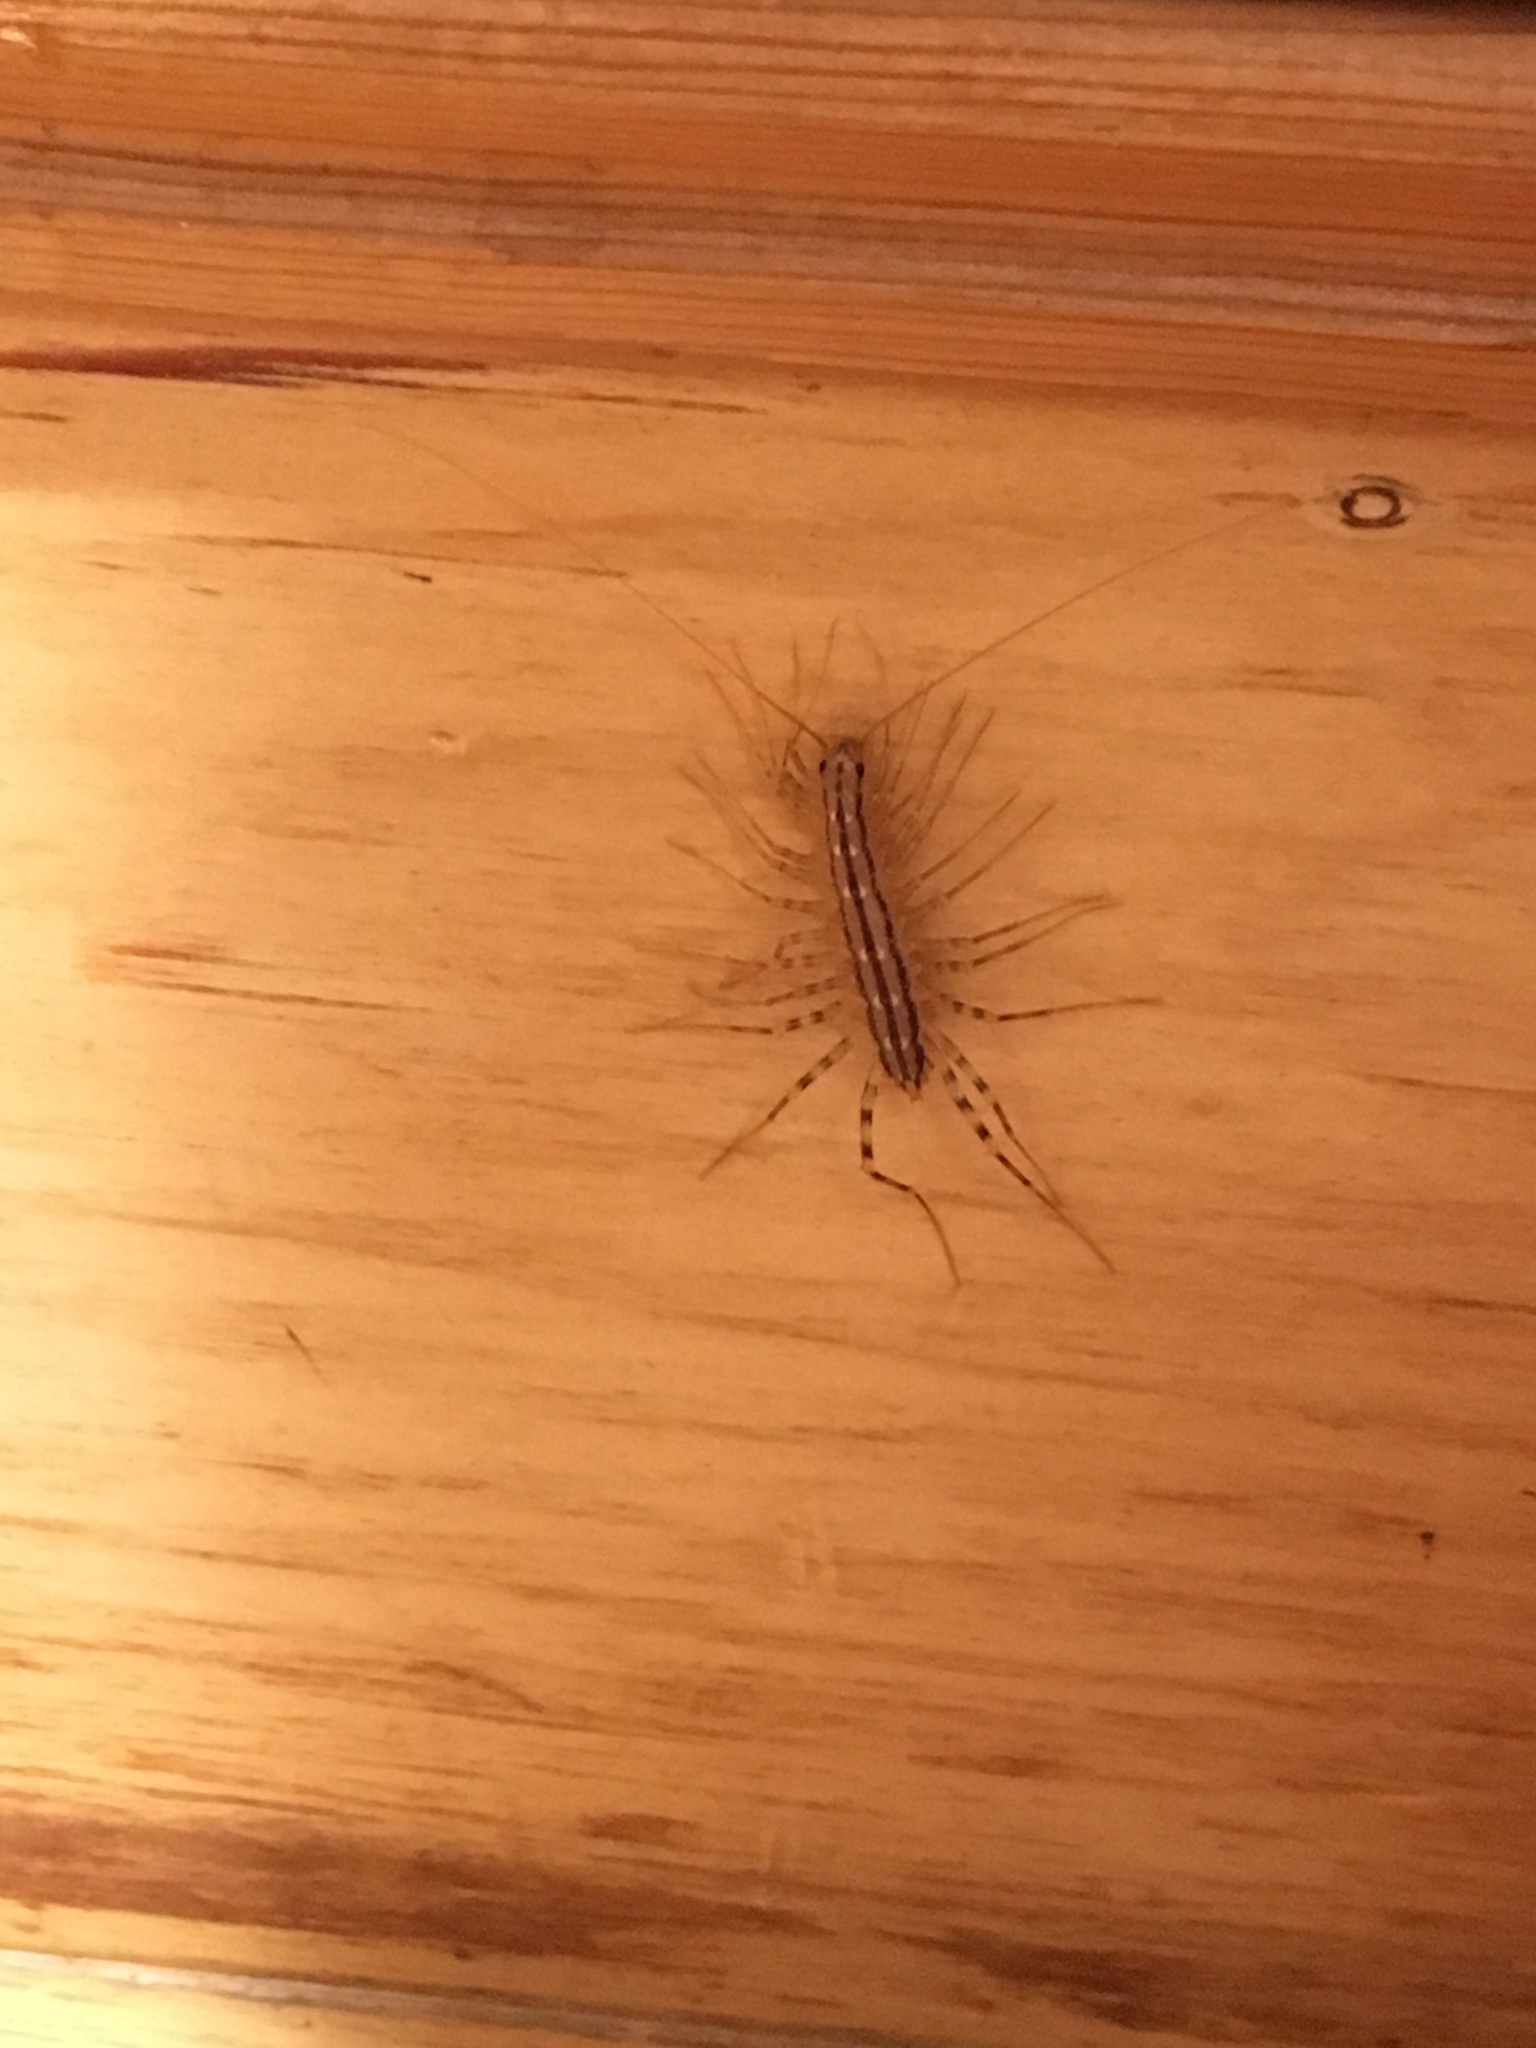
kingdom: Animalia
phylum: Arthropoda
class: Chilopoda
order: Scutigeromorpha
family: Scutigeridae
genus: Scutigera
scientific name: Scutigera coleoptrata
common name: House centipede
